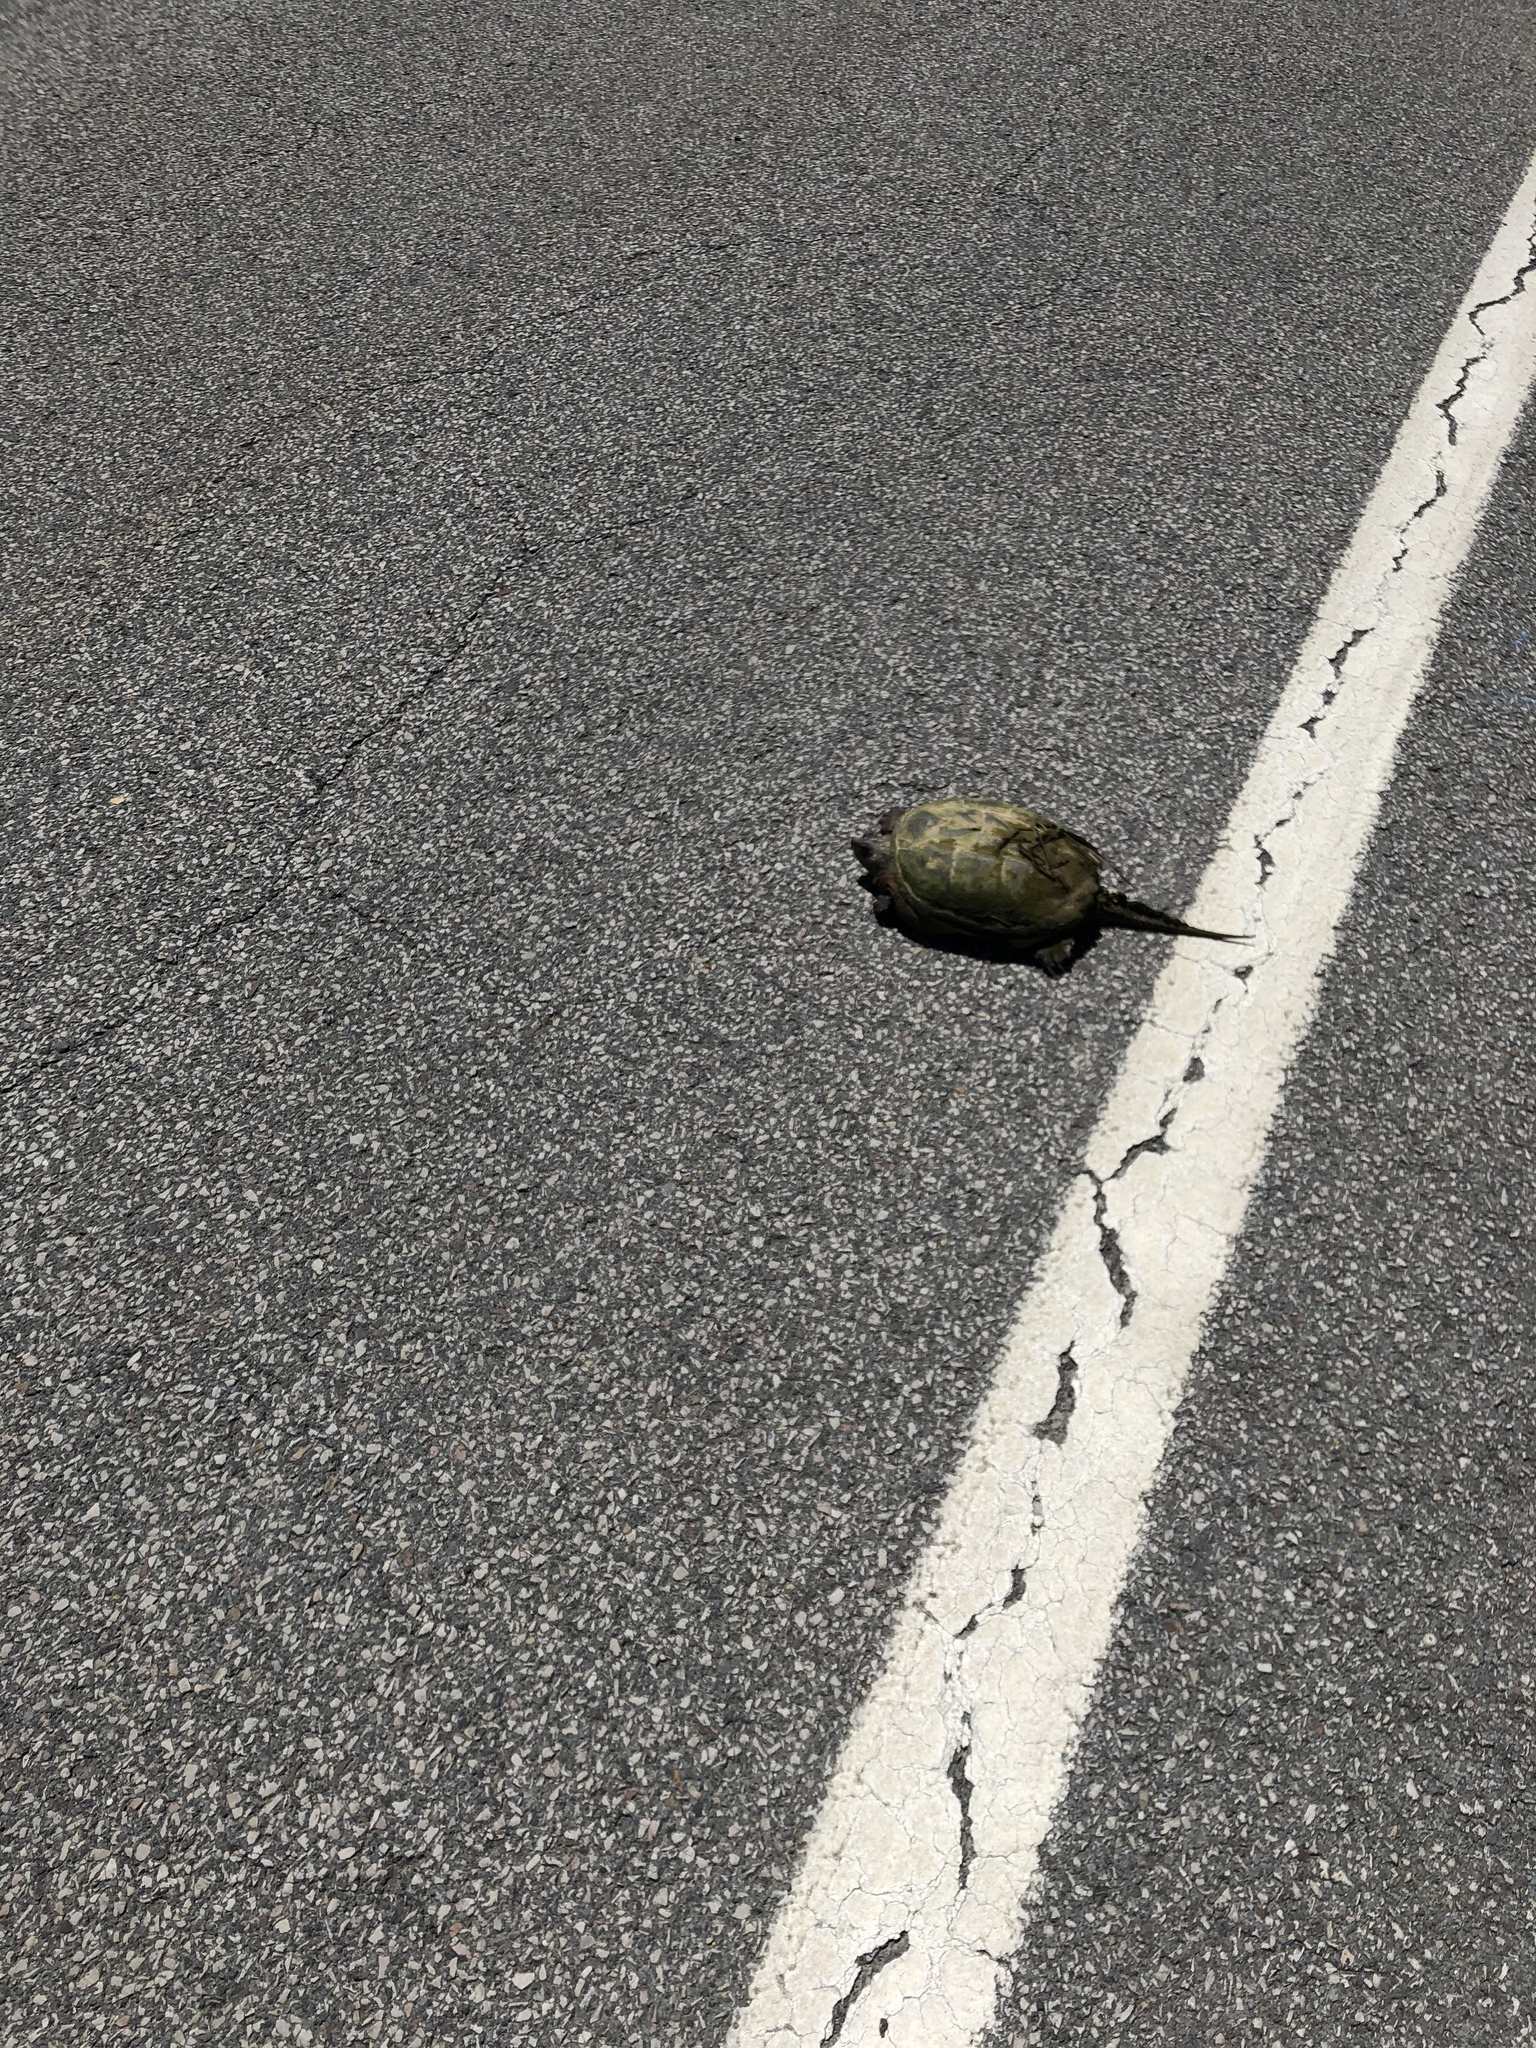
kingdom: Animalia
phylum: Chordata
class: Testudines
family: Chelydridae
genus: Chelydra
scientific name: Chelydra serpentina
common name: Common snapping turtle
